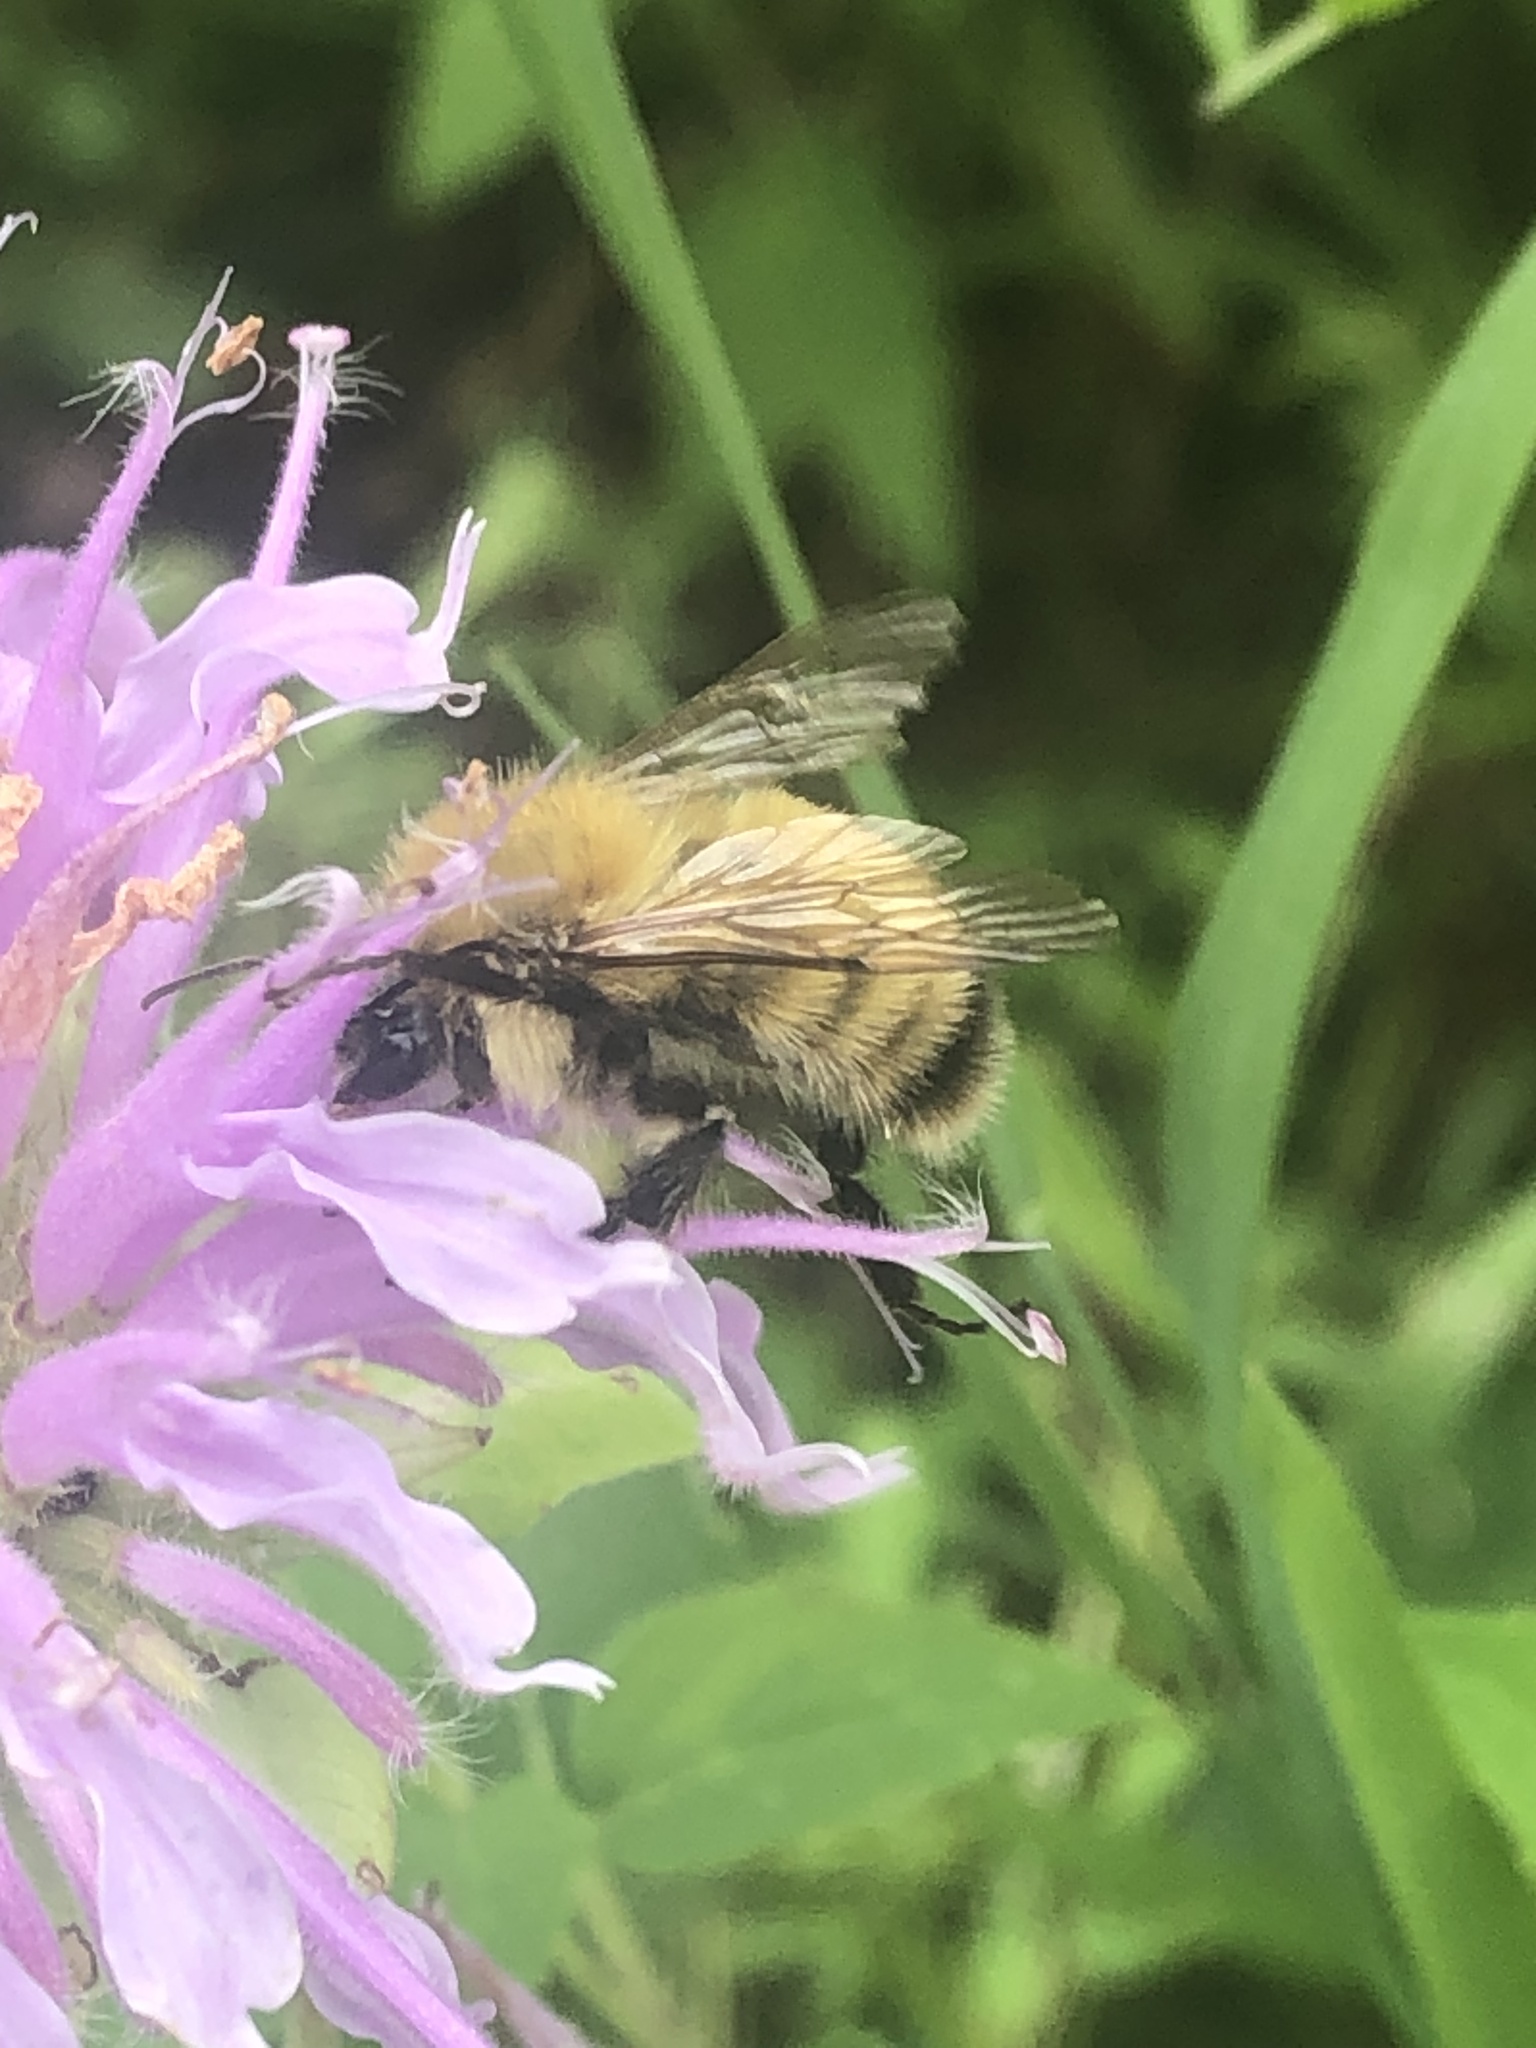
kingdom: Animalia
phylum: Arthropoda
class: Insecta
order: Hymenoptera
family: Apidae
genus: Bombus
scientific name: Bombus perplexus
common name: Confusing bumble bee
